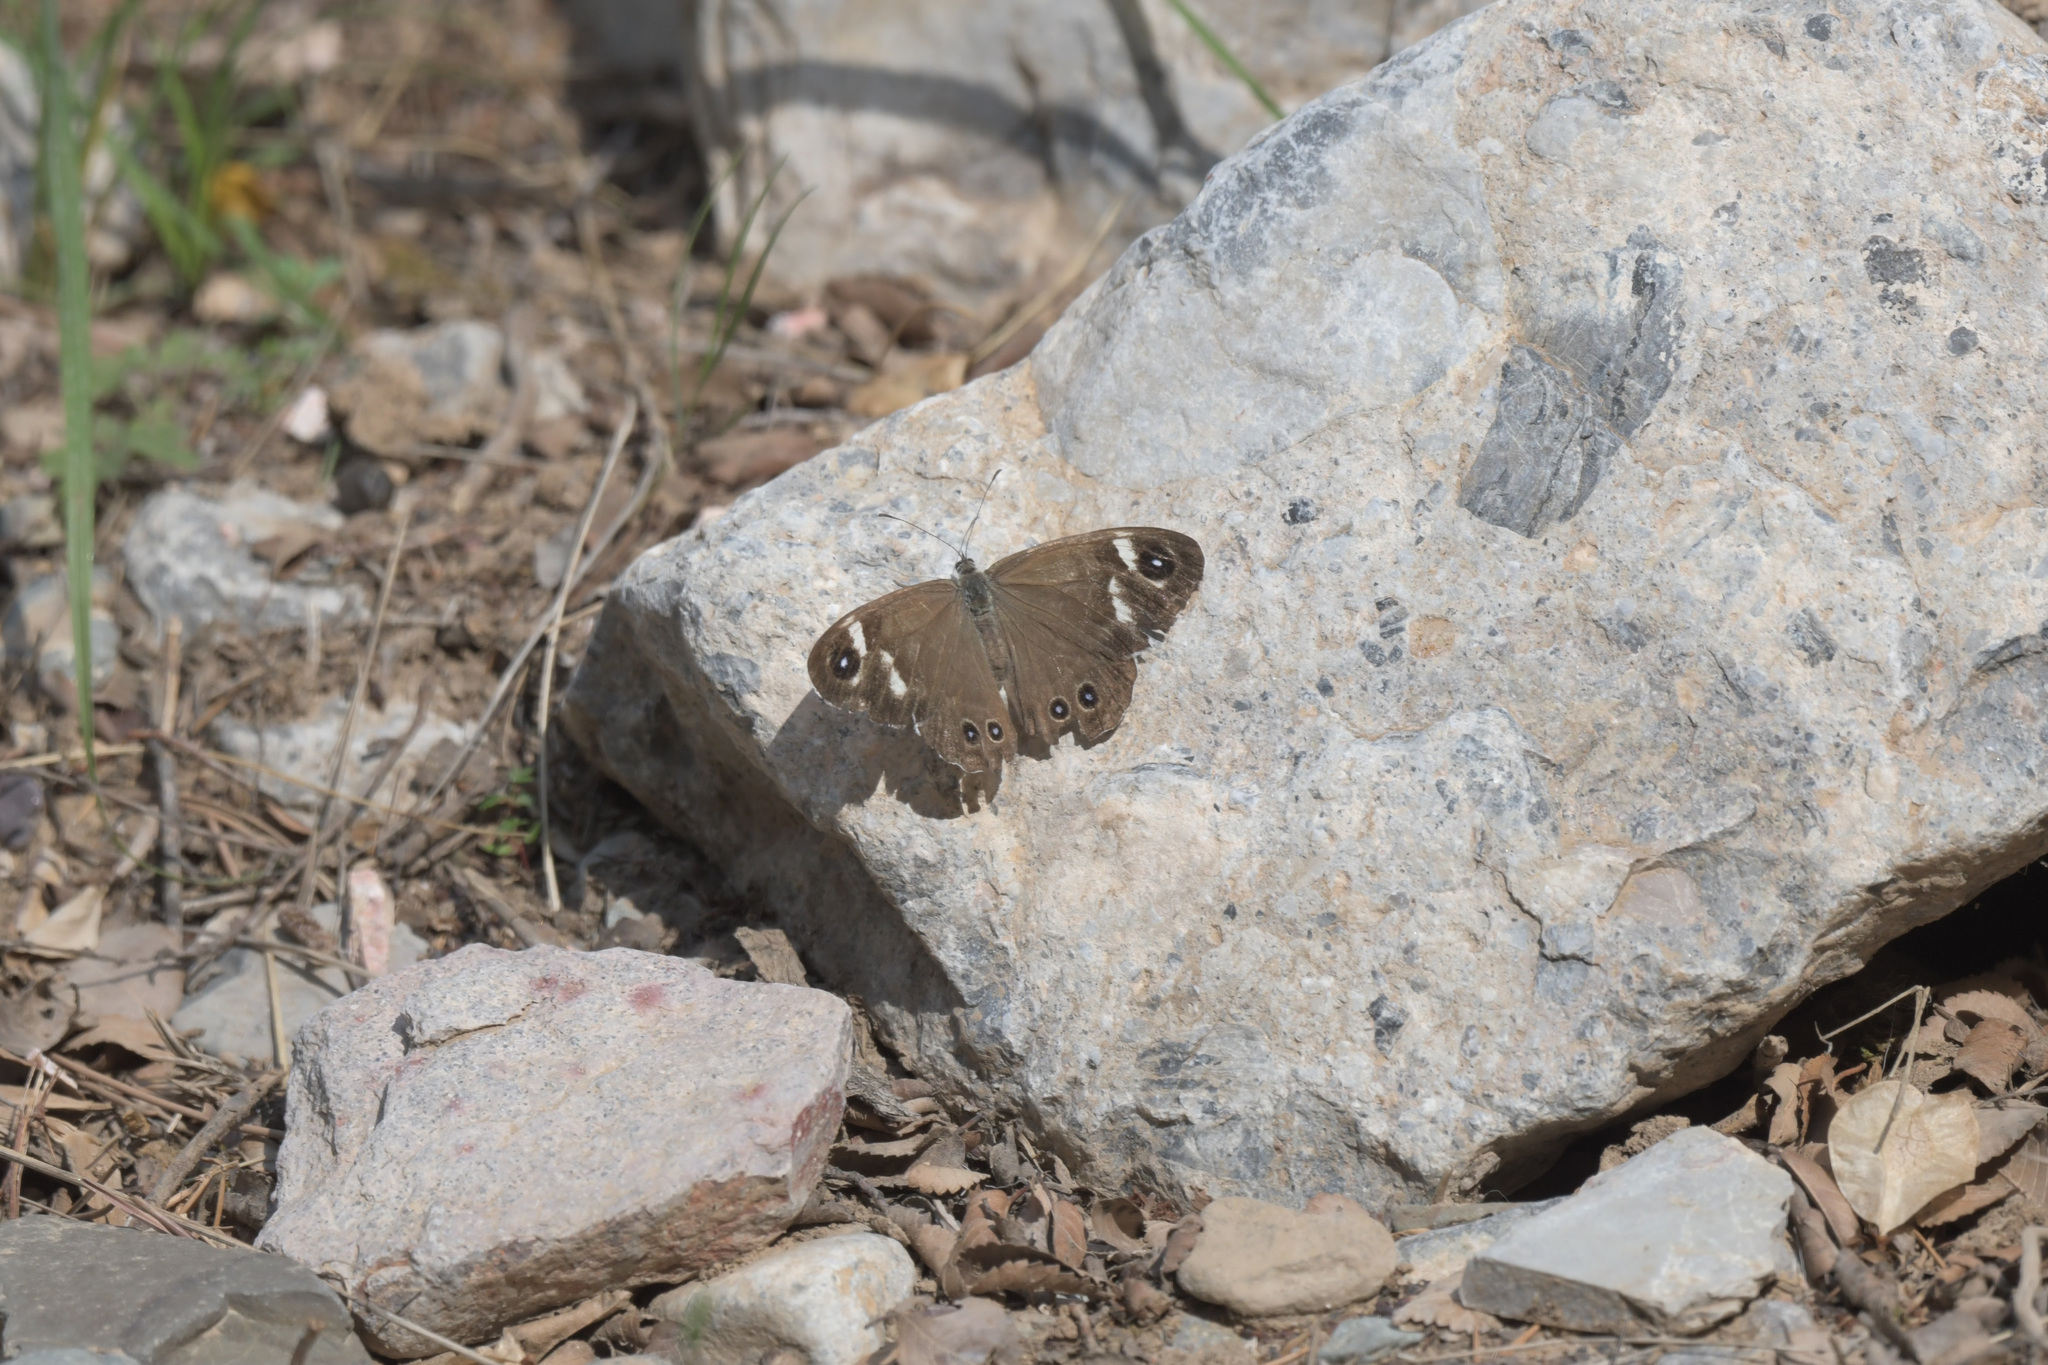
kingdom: Animalia
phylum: Arthropoda
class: Insecta
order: Lepidoptera
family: Nymphalidae
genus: Pararge
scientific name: Pararge Lasiommata deidamia
